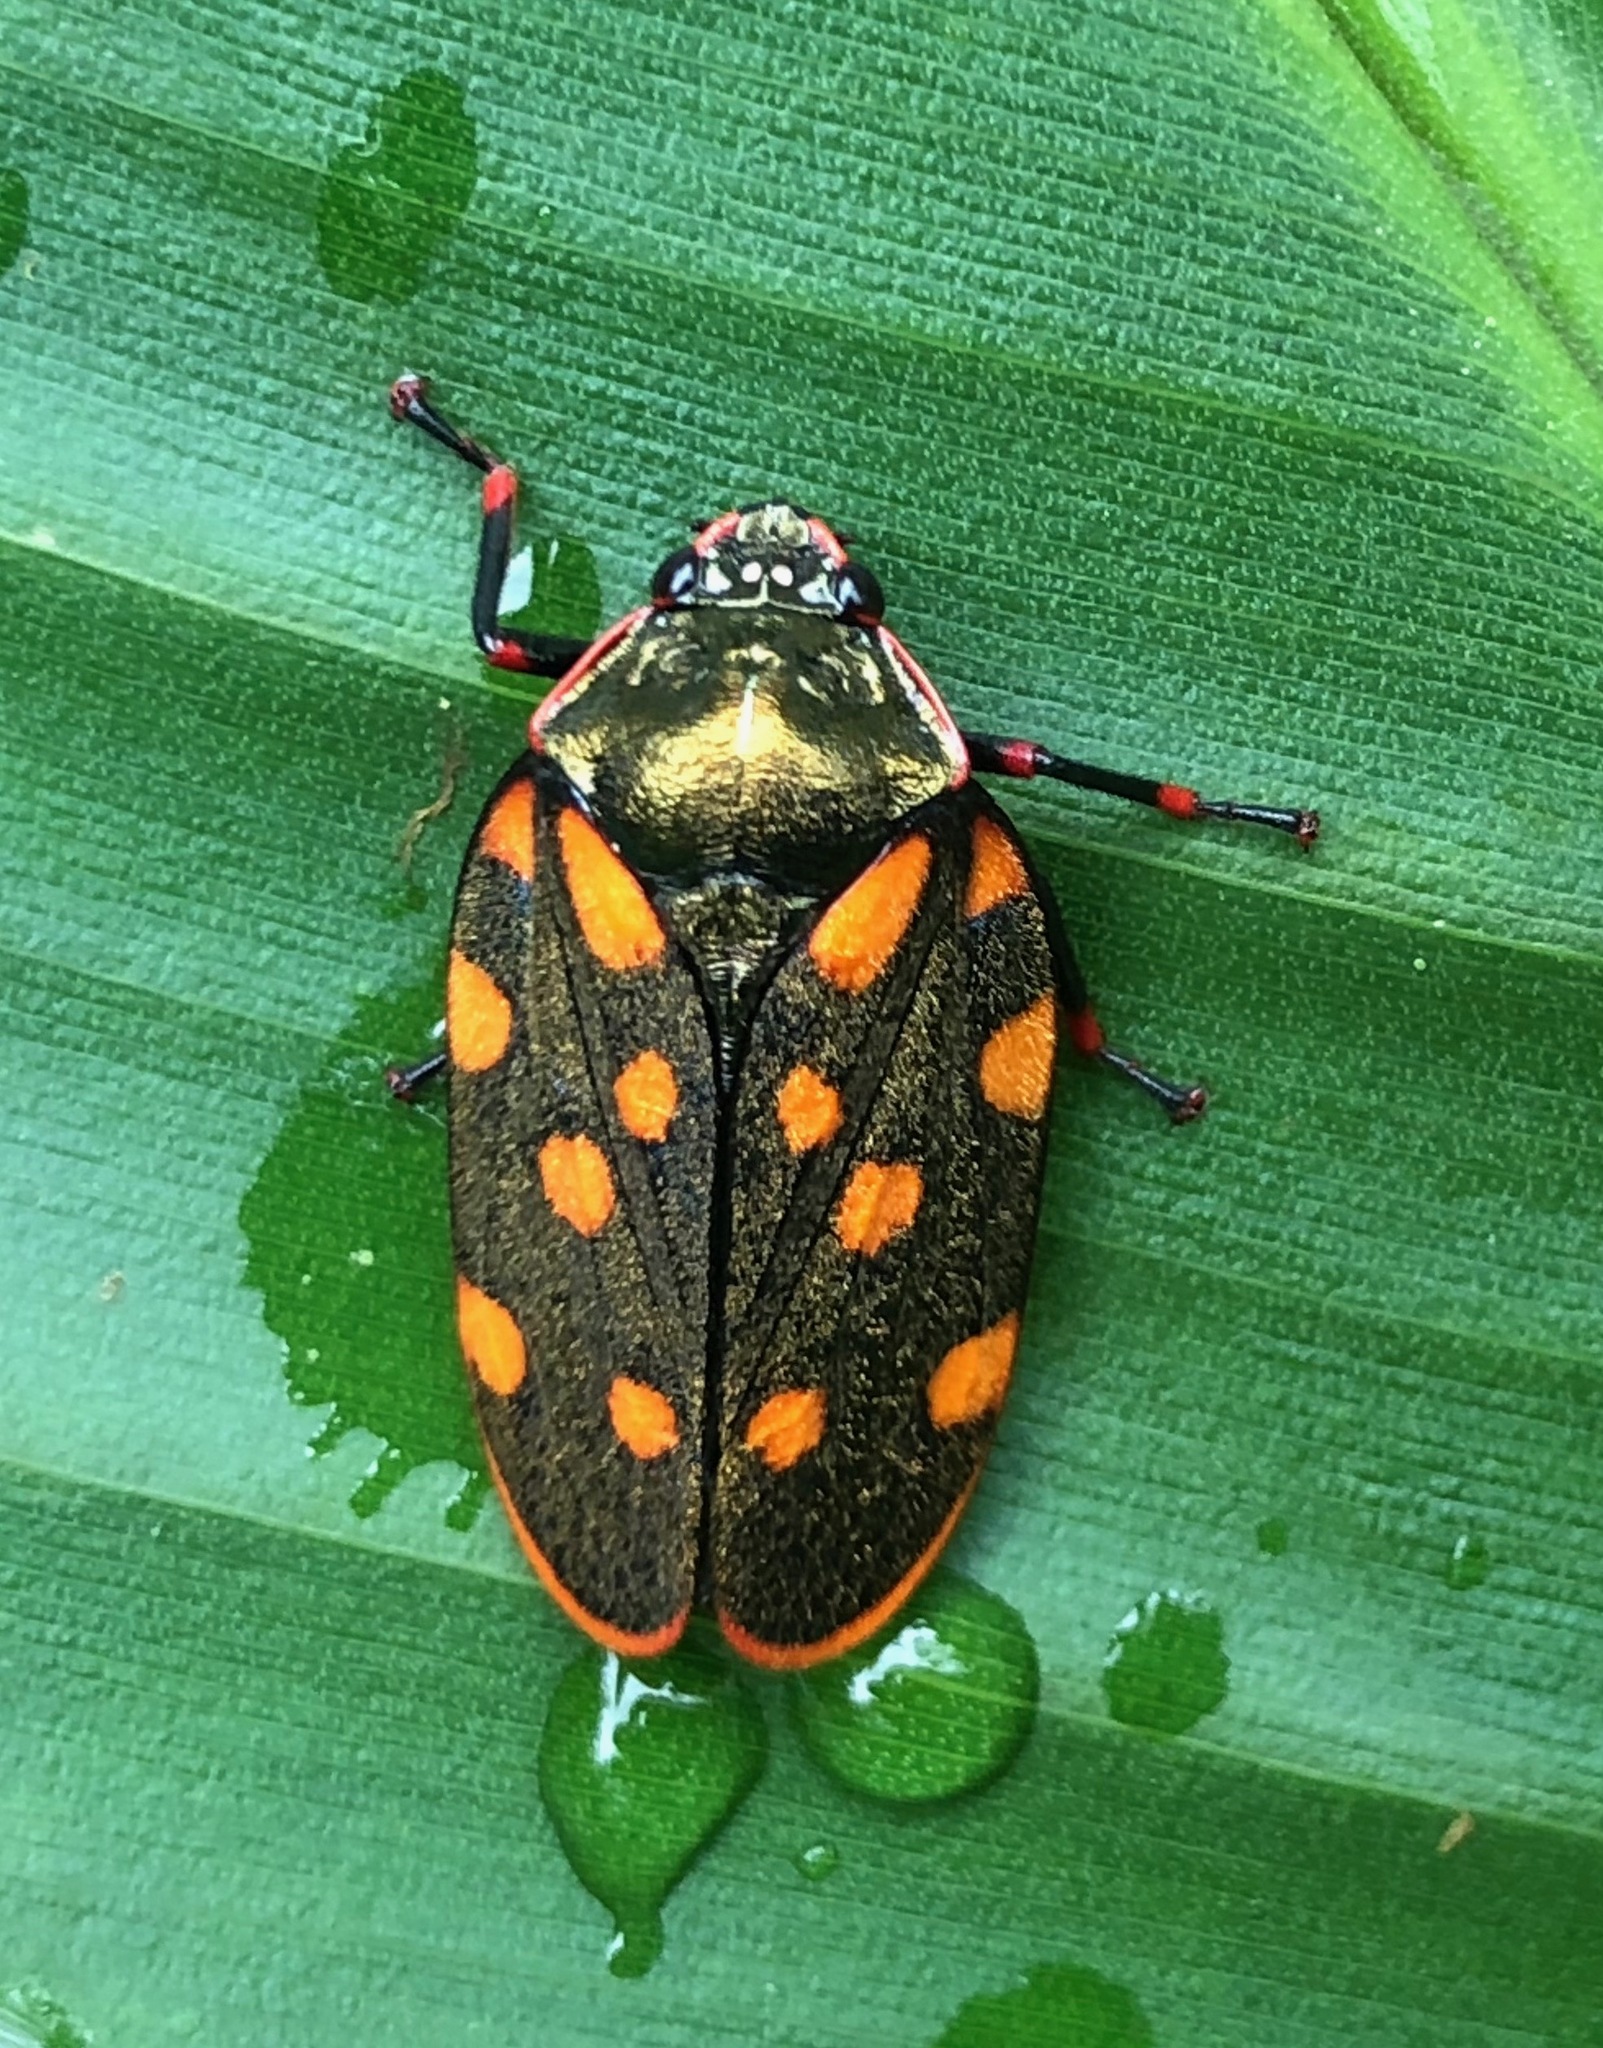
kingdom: Animalia
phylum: Arthropoda
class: Insecta
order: Hemiptera
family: Cercopidae
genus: Mahanarva
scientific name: Mahanarva costaricensis
